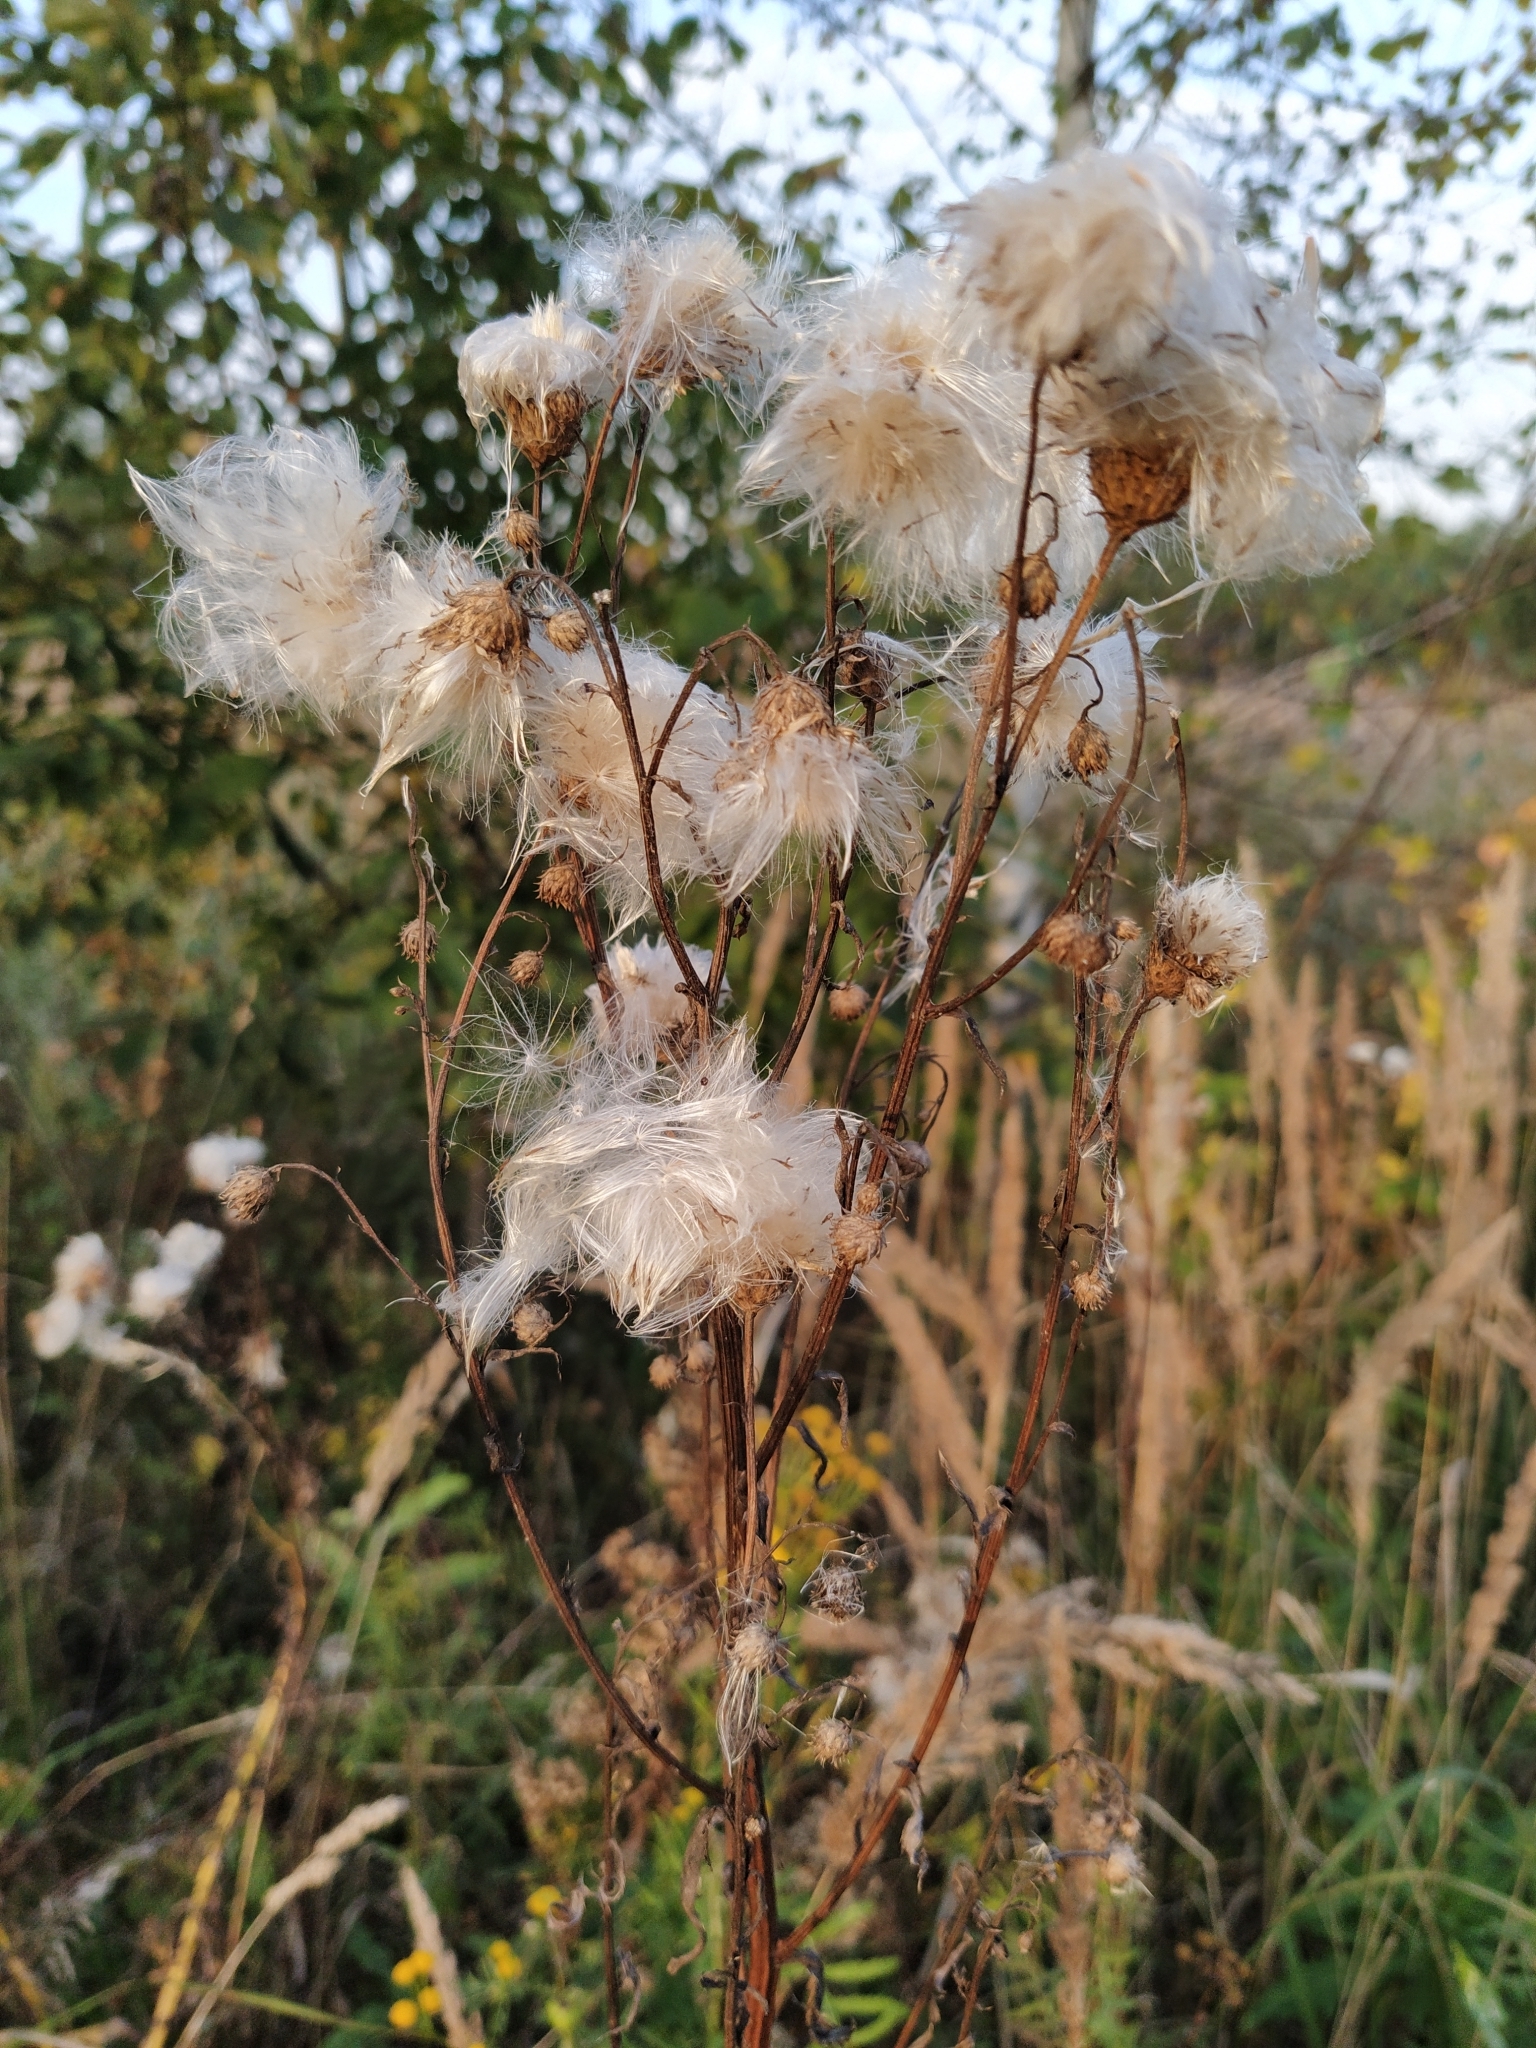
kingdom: Plantae
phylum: Tracheophyta
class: Magnoliopsida
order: Asterales
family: Asteraceae
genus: Cirsium
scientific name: Cirsium arvense
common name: Creeping thistle
